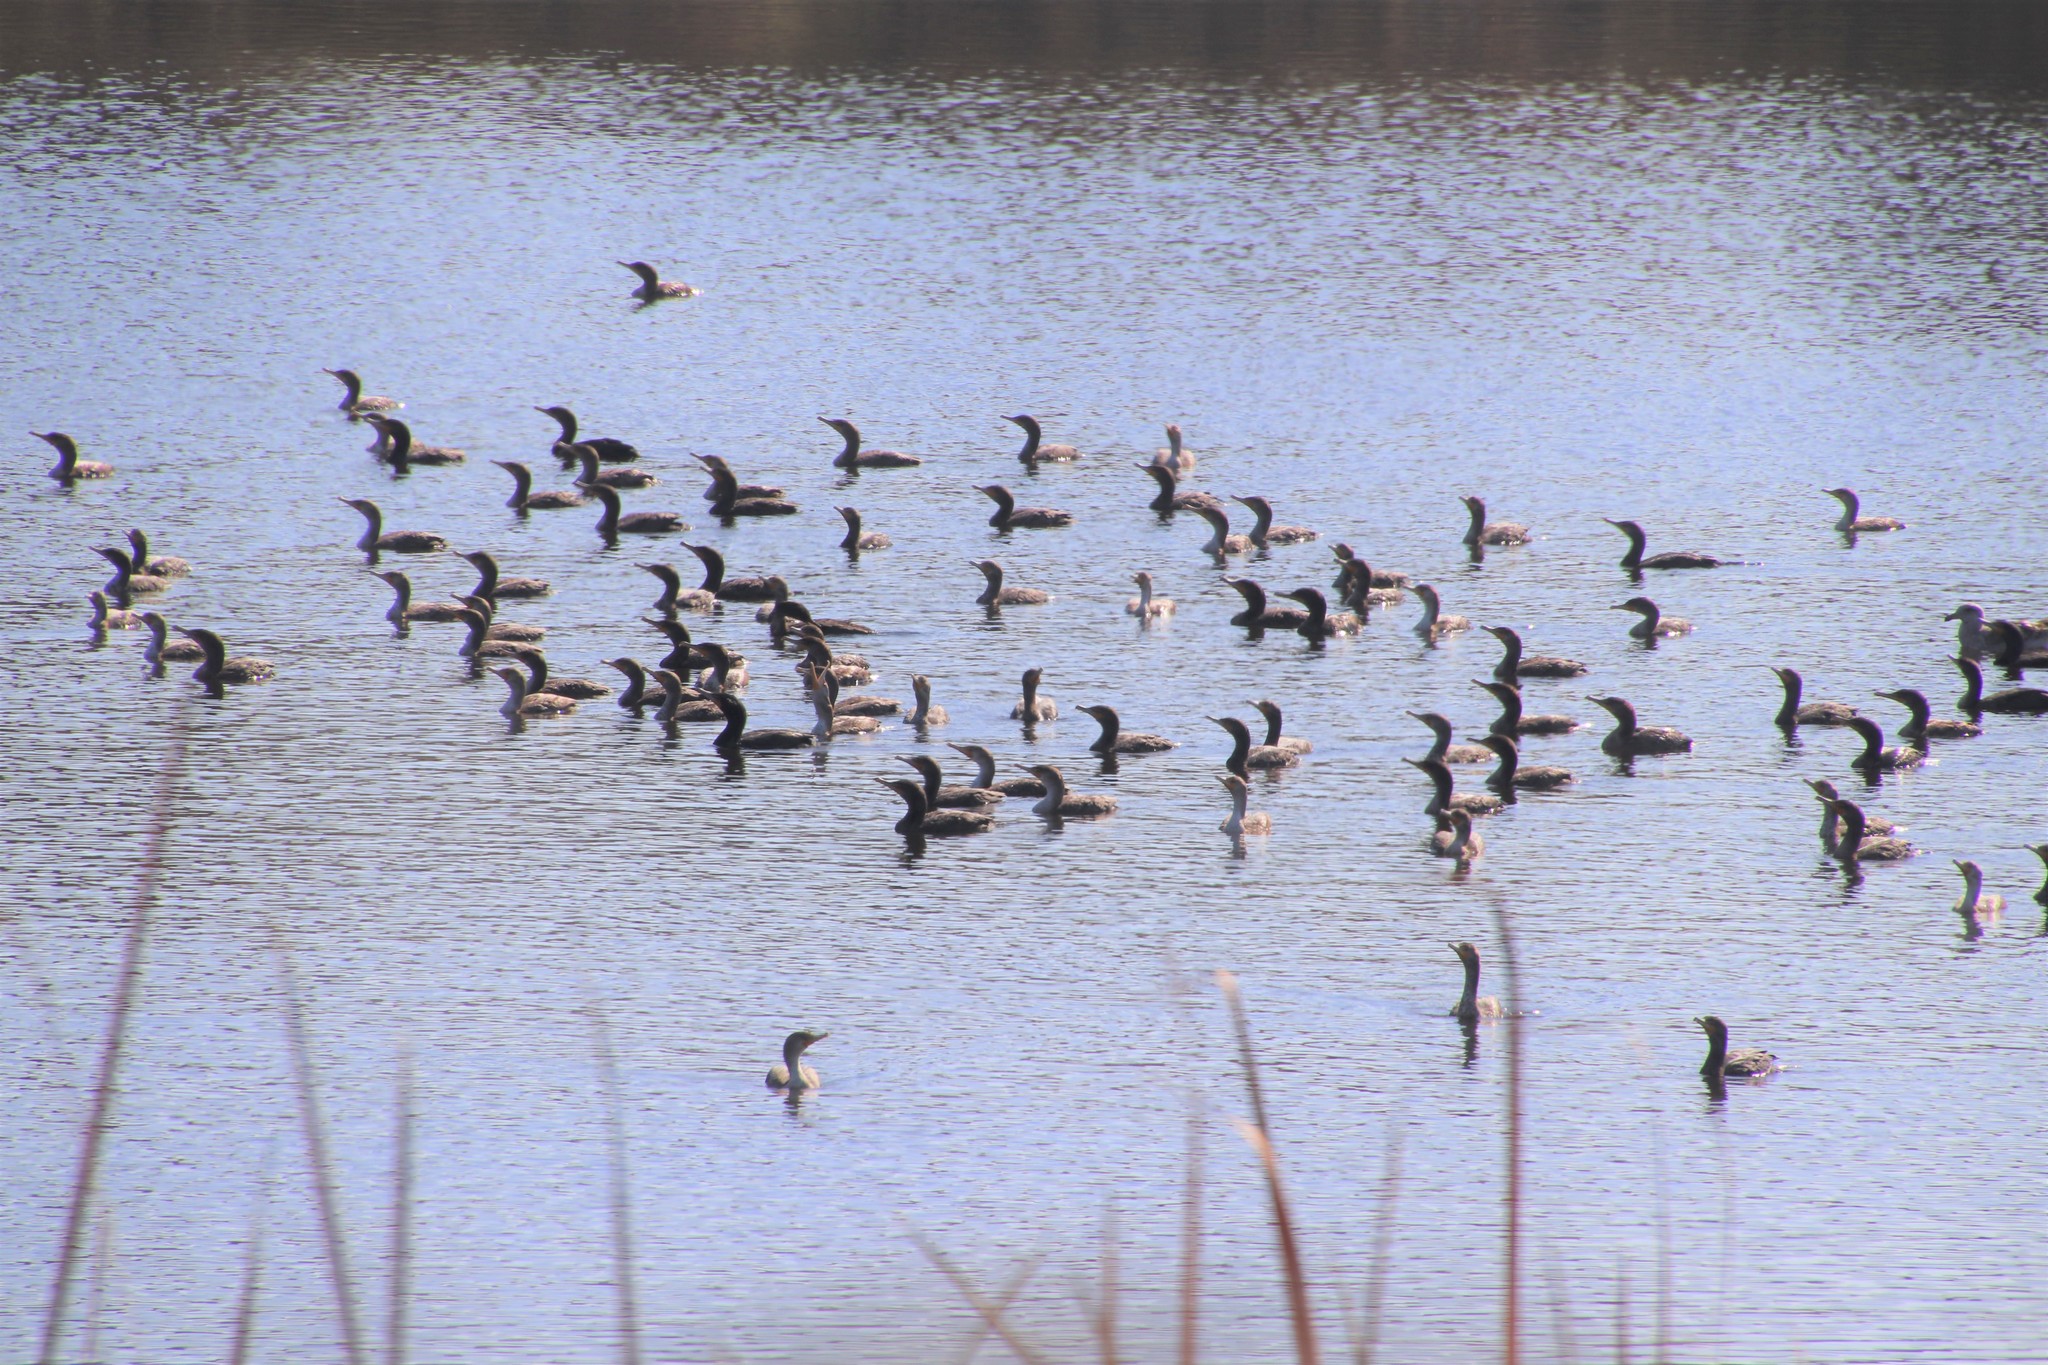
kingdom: Animalia
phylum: Chordata
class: Aves
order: Suliformes
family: Phalacrocoracidae
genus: Phalacrocorax
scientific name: Phalacrocorax auritus
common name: Double-crested cormorant
